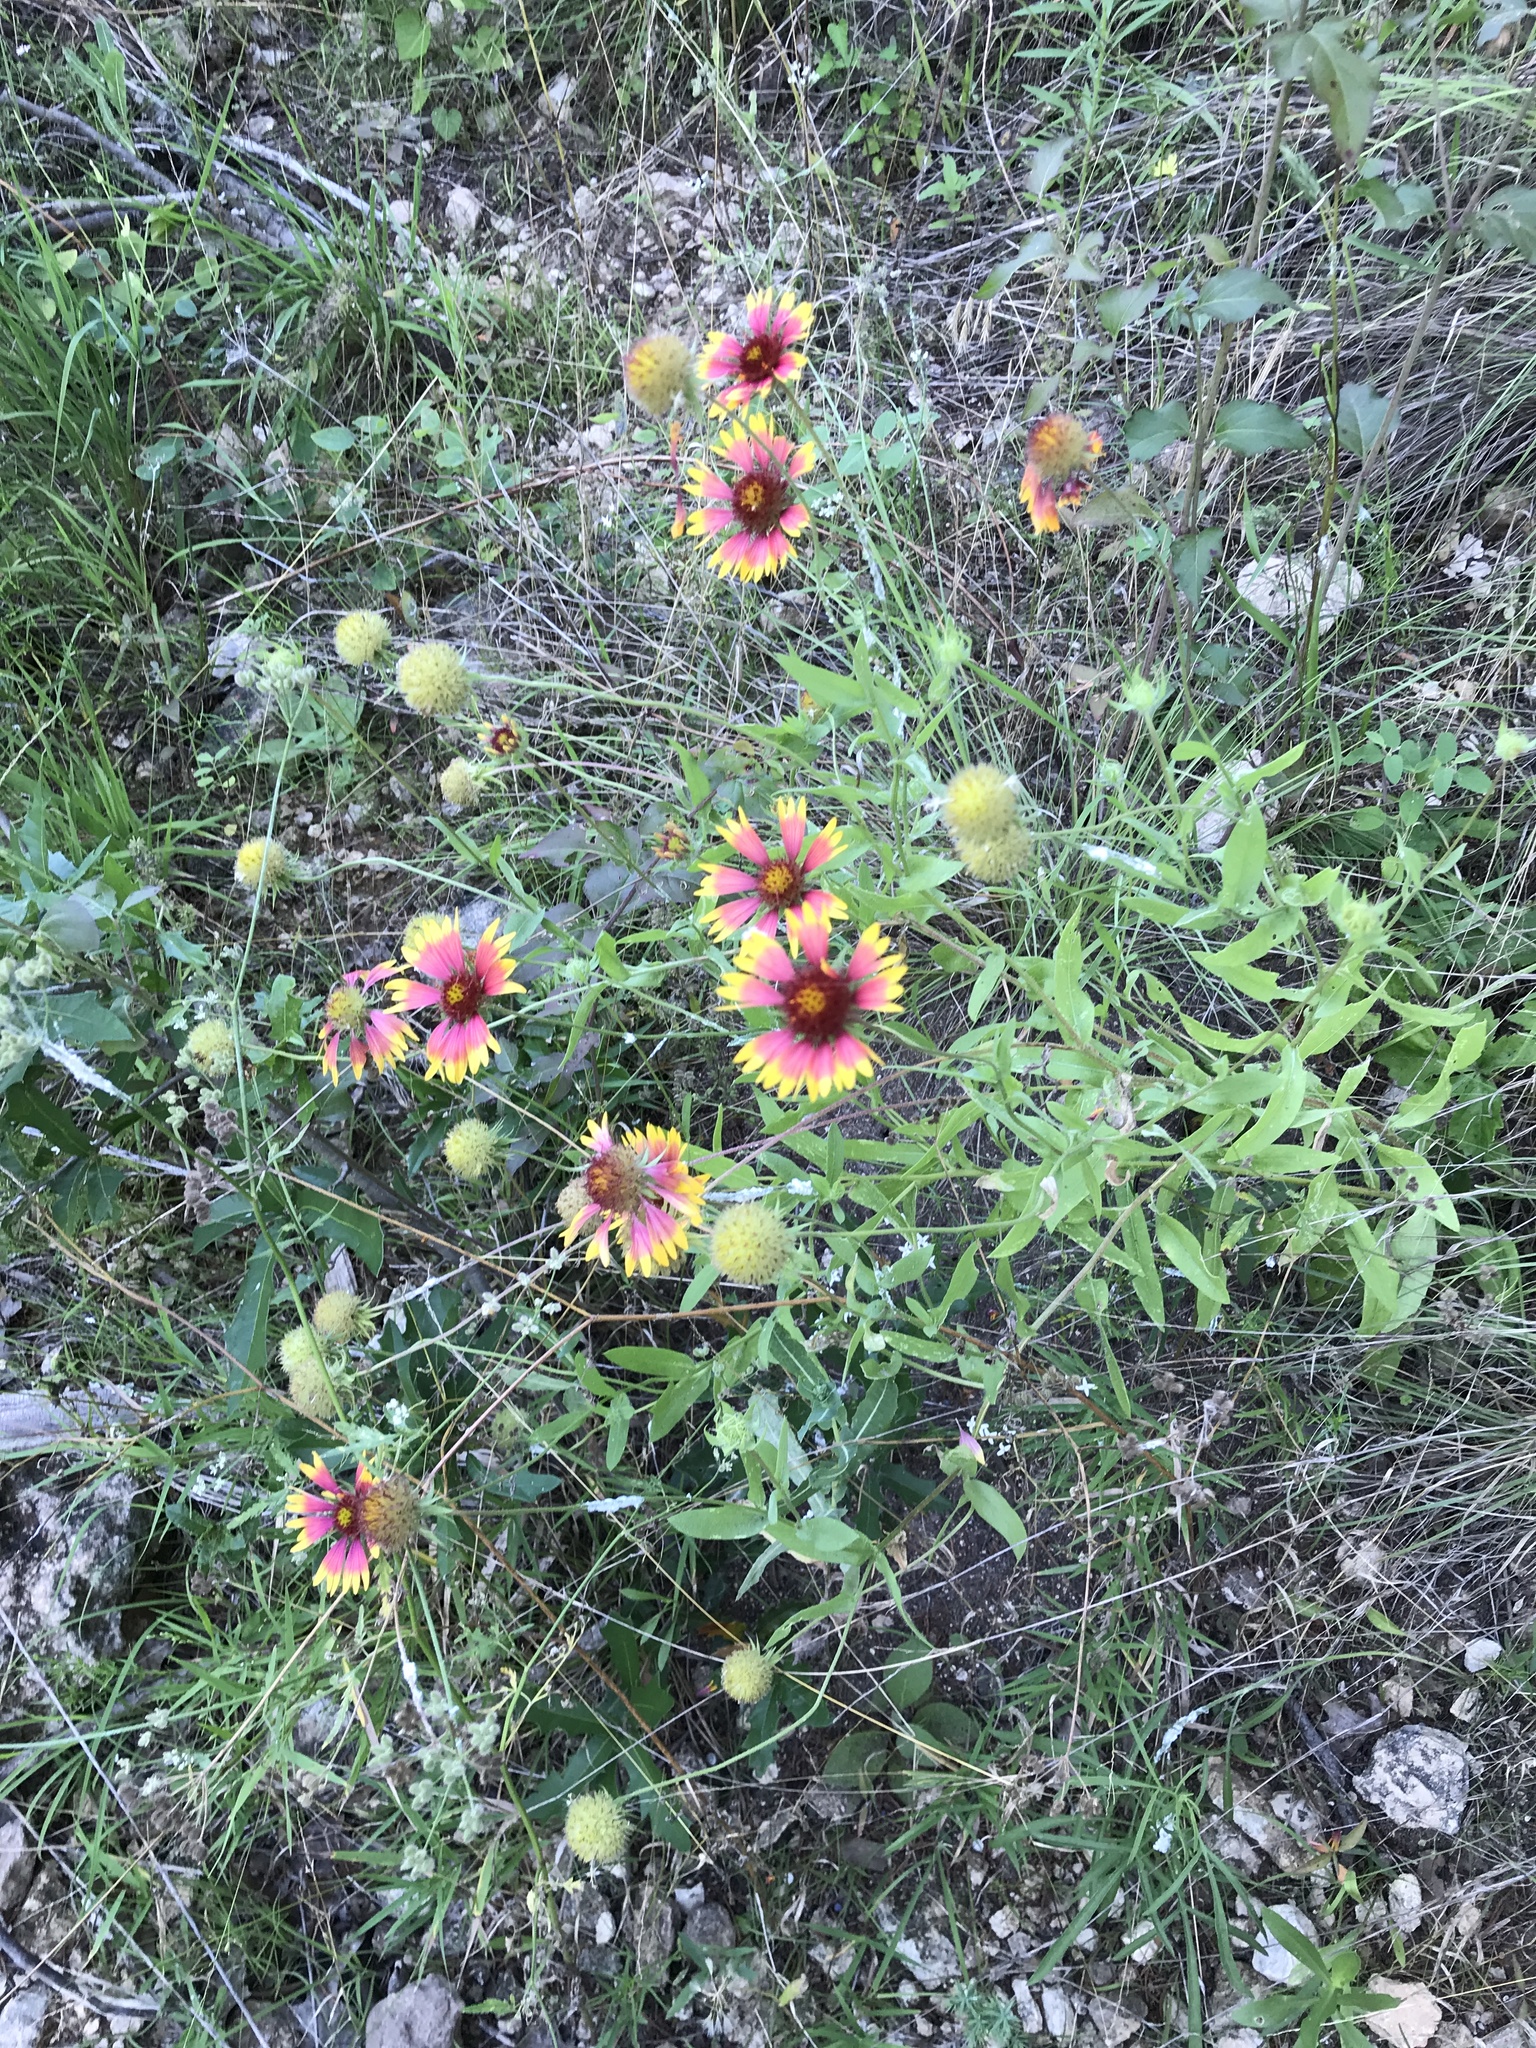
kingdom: Plantae
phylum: Tracheophyta
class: Magnoliopsida
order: Asterales
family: Asteraceae
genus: Gaillardia
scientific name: Gaillardia pulchella
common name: Firewheel
